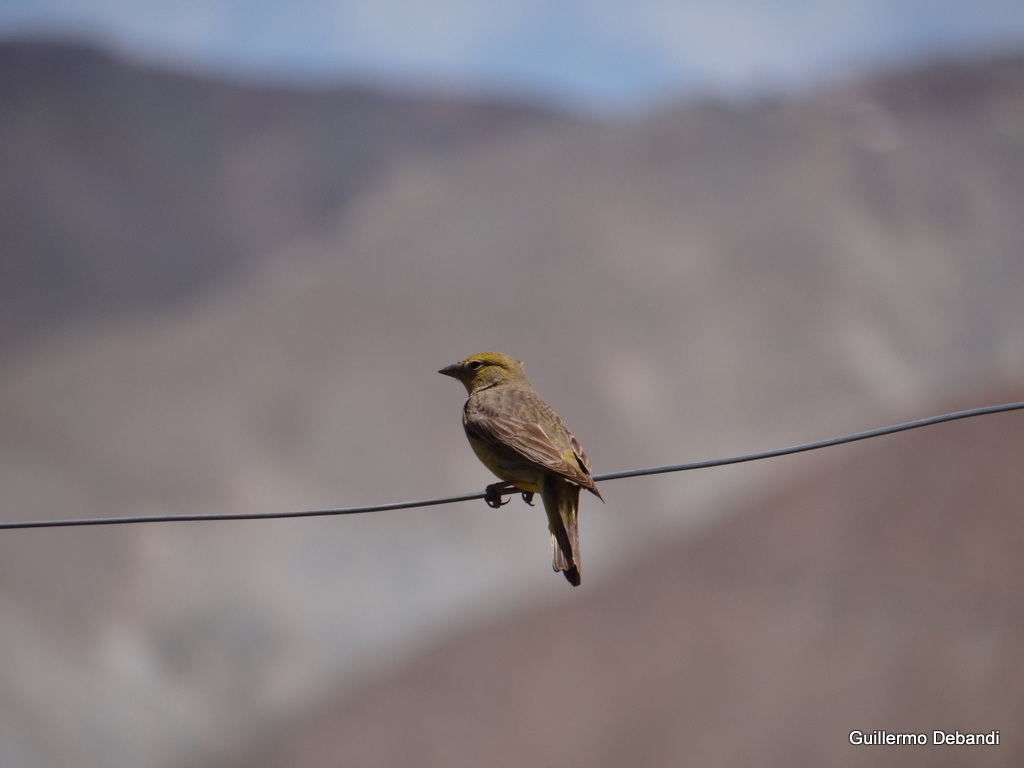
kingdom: Animalia
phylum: Chordata
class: Aves
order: Passeriformes
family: Thraupidae
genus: Sicalis
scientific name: Sicalis olivascens
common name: Greenish yellow finch
